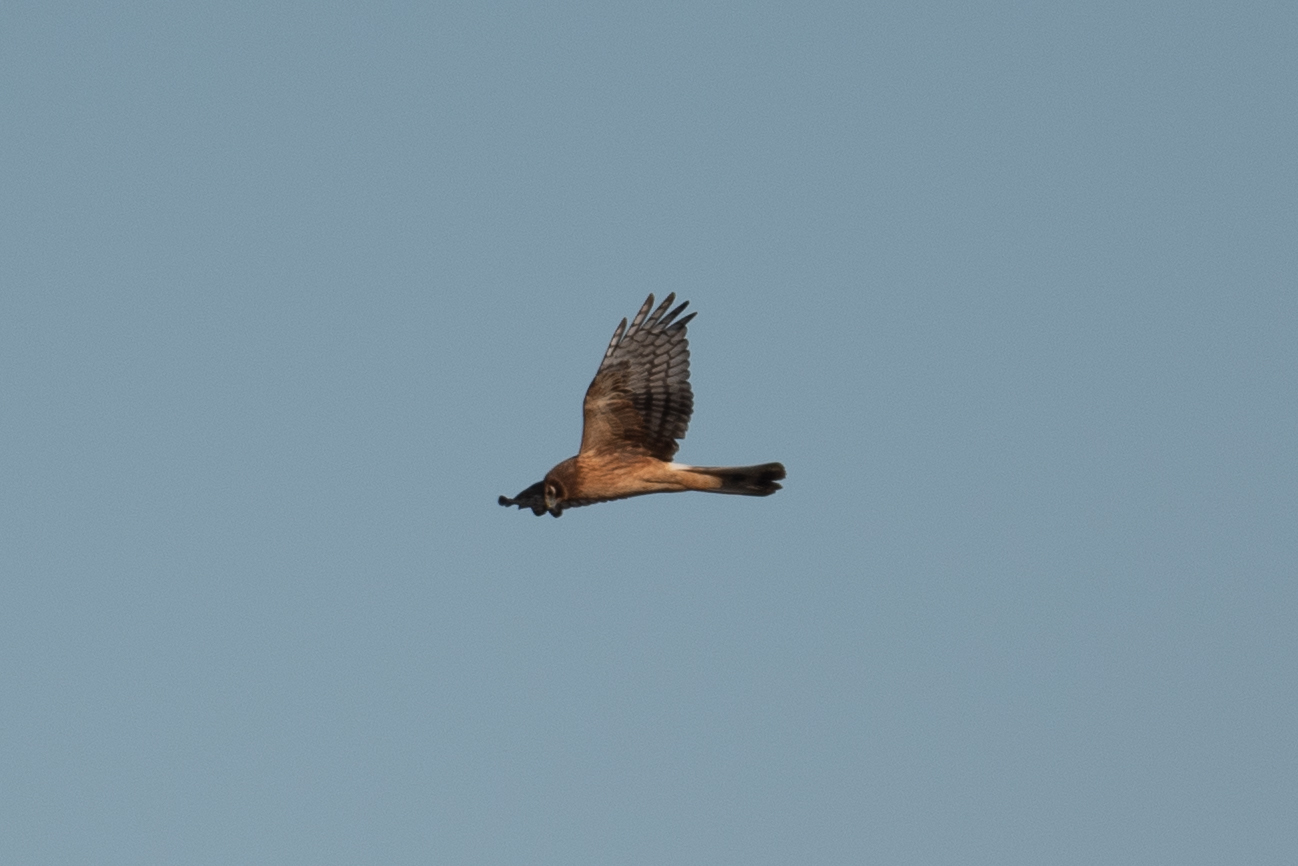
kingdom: Animalia
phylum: Chordata
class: Aves
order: Accipitriformes
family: Accipitridae
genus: Circus
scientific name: Circus cyaneus
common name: Hen harrier
